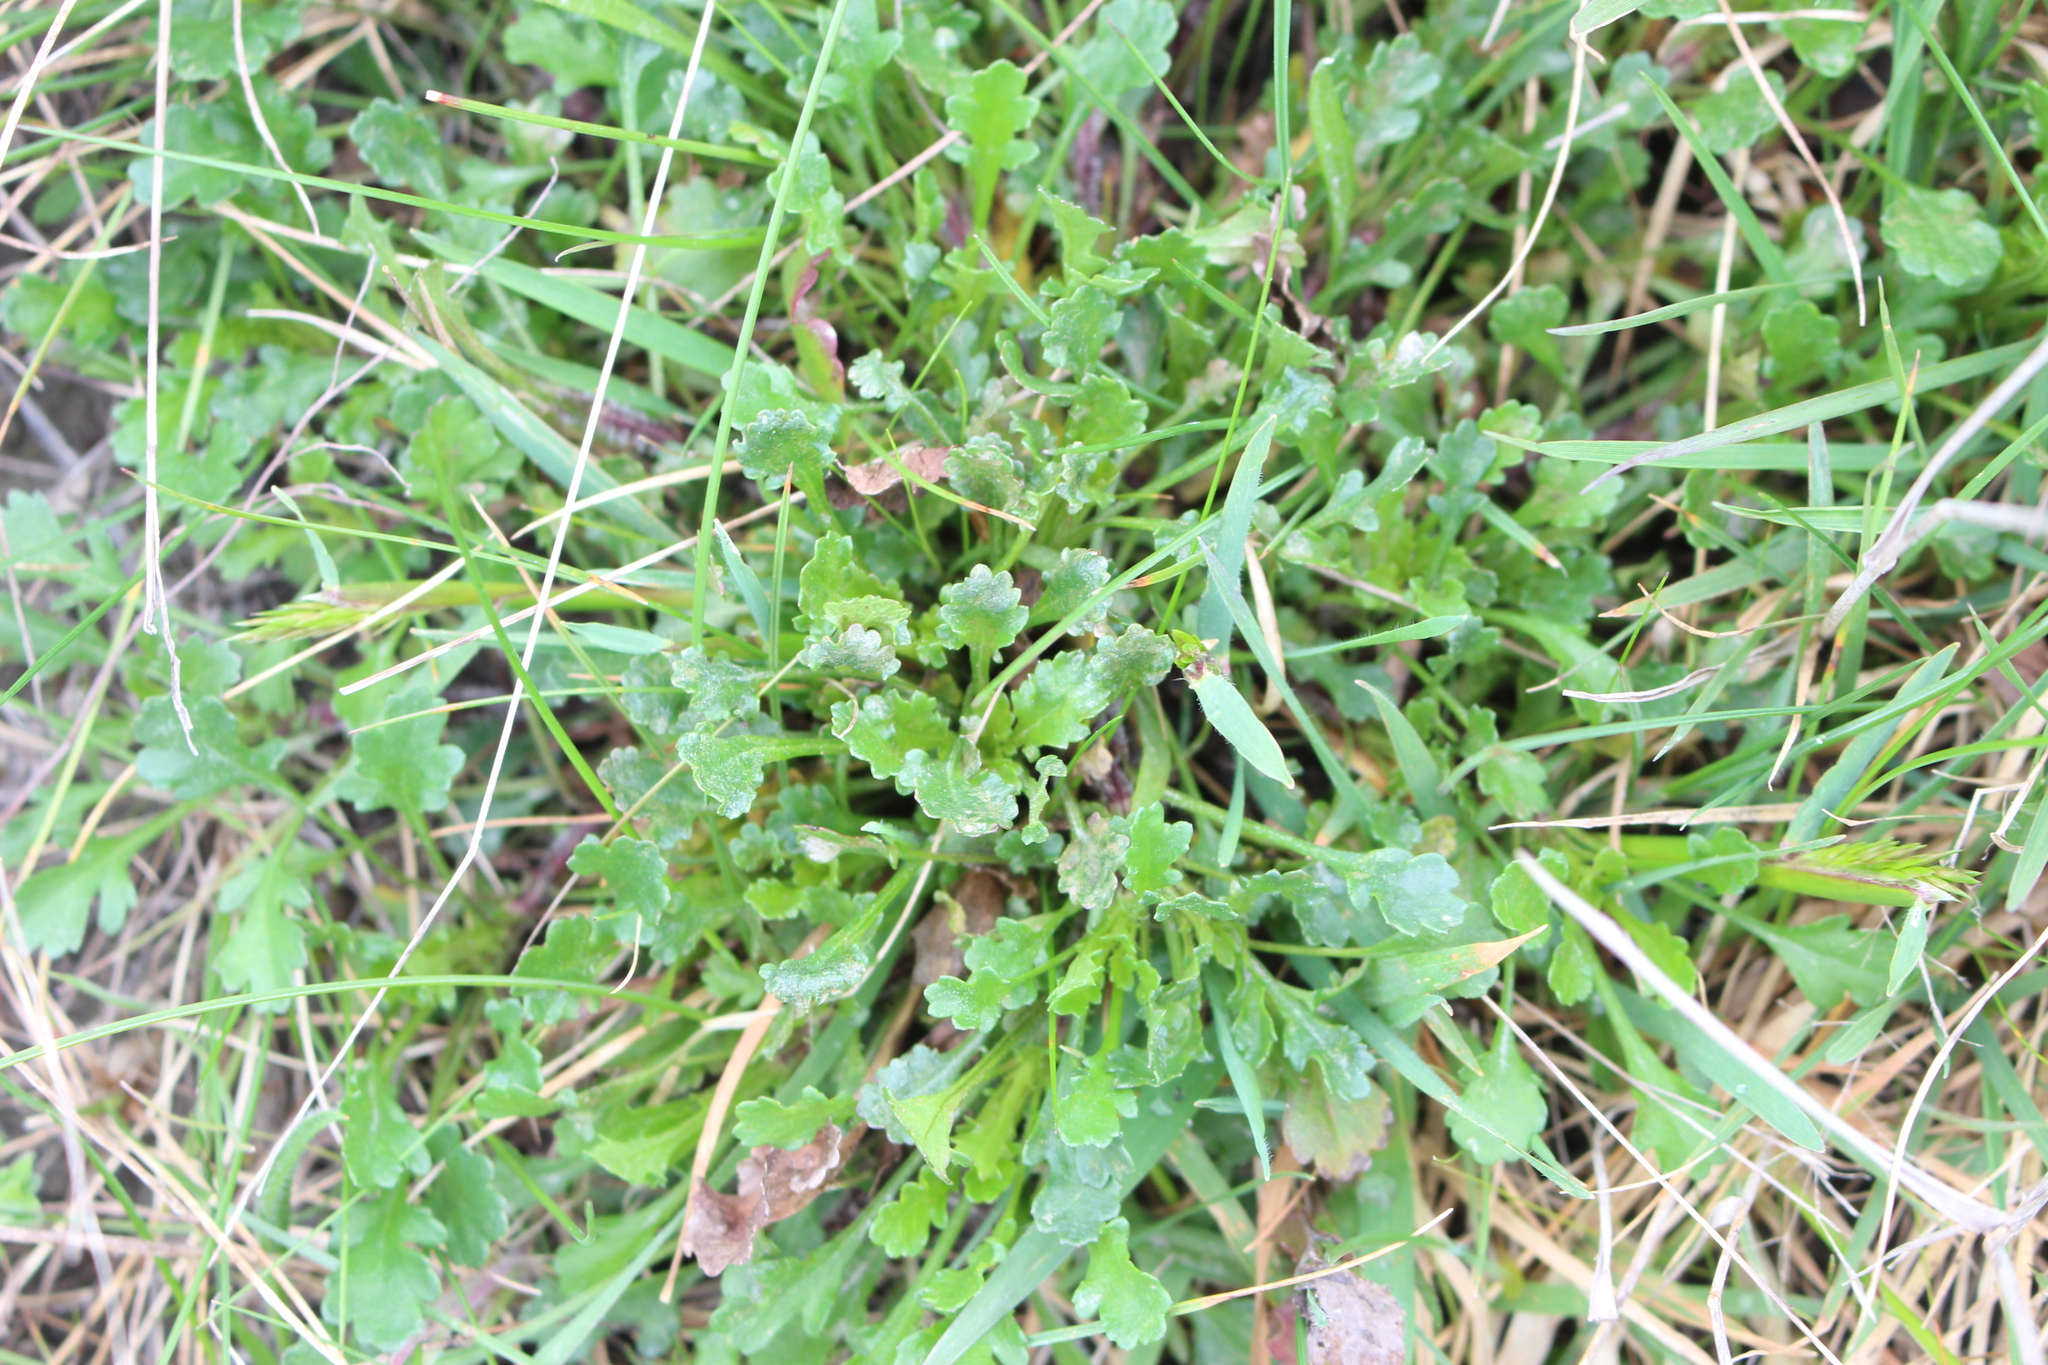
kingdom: Plantae
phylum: Tracheophyta
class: Magnoliopsida
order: Asterales
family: Asteraceae
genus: Leucanthemum
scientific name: Leucanthemum vulgare
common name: Oxeye daisy
